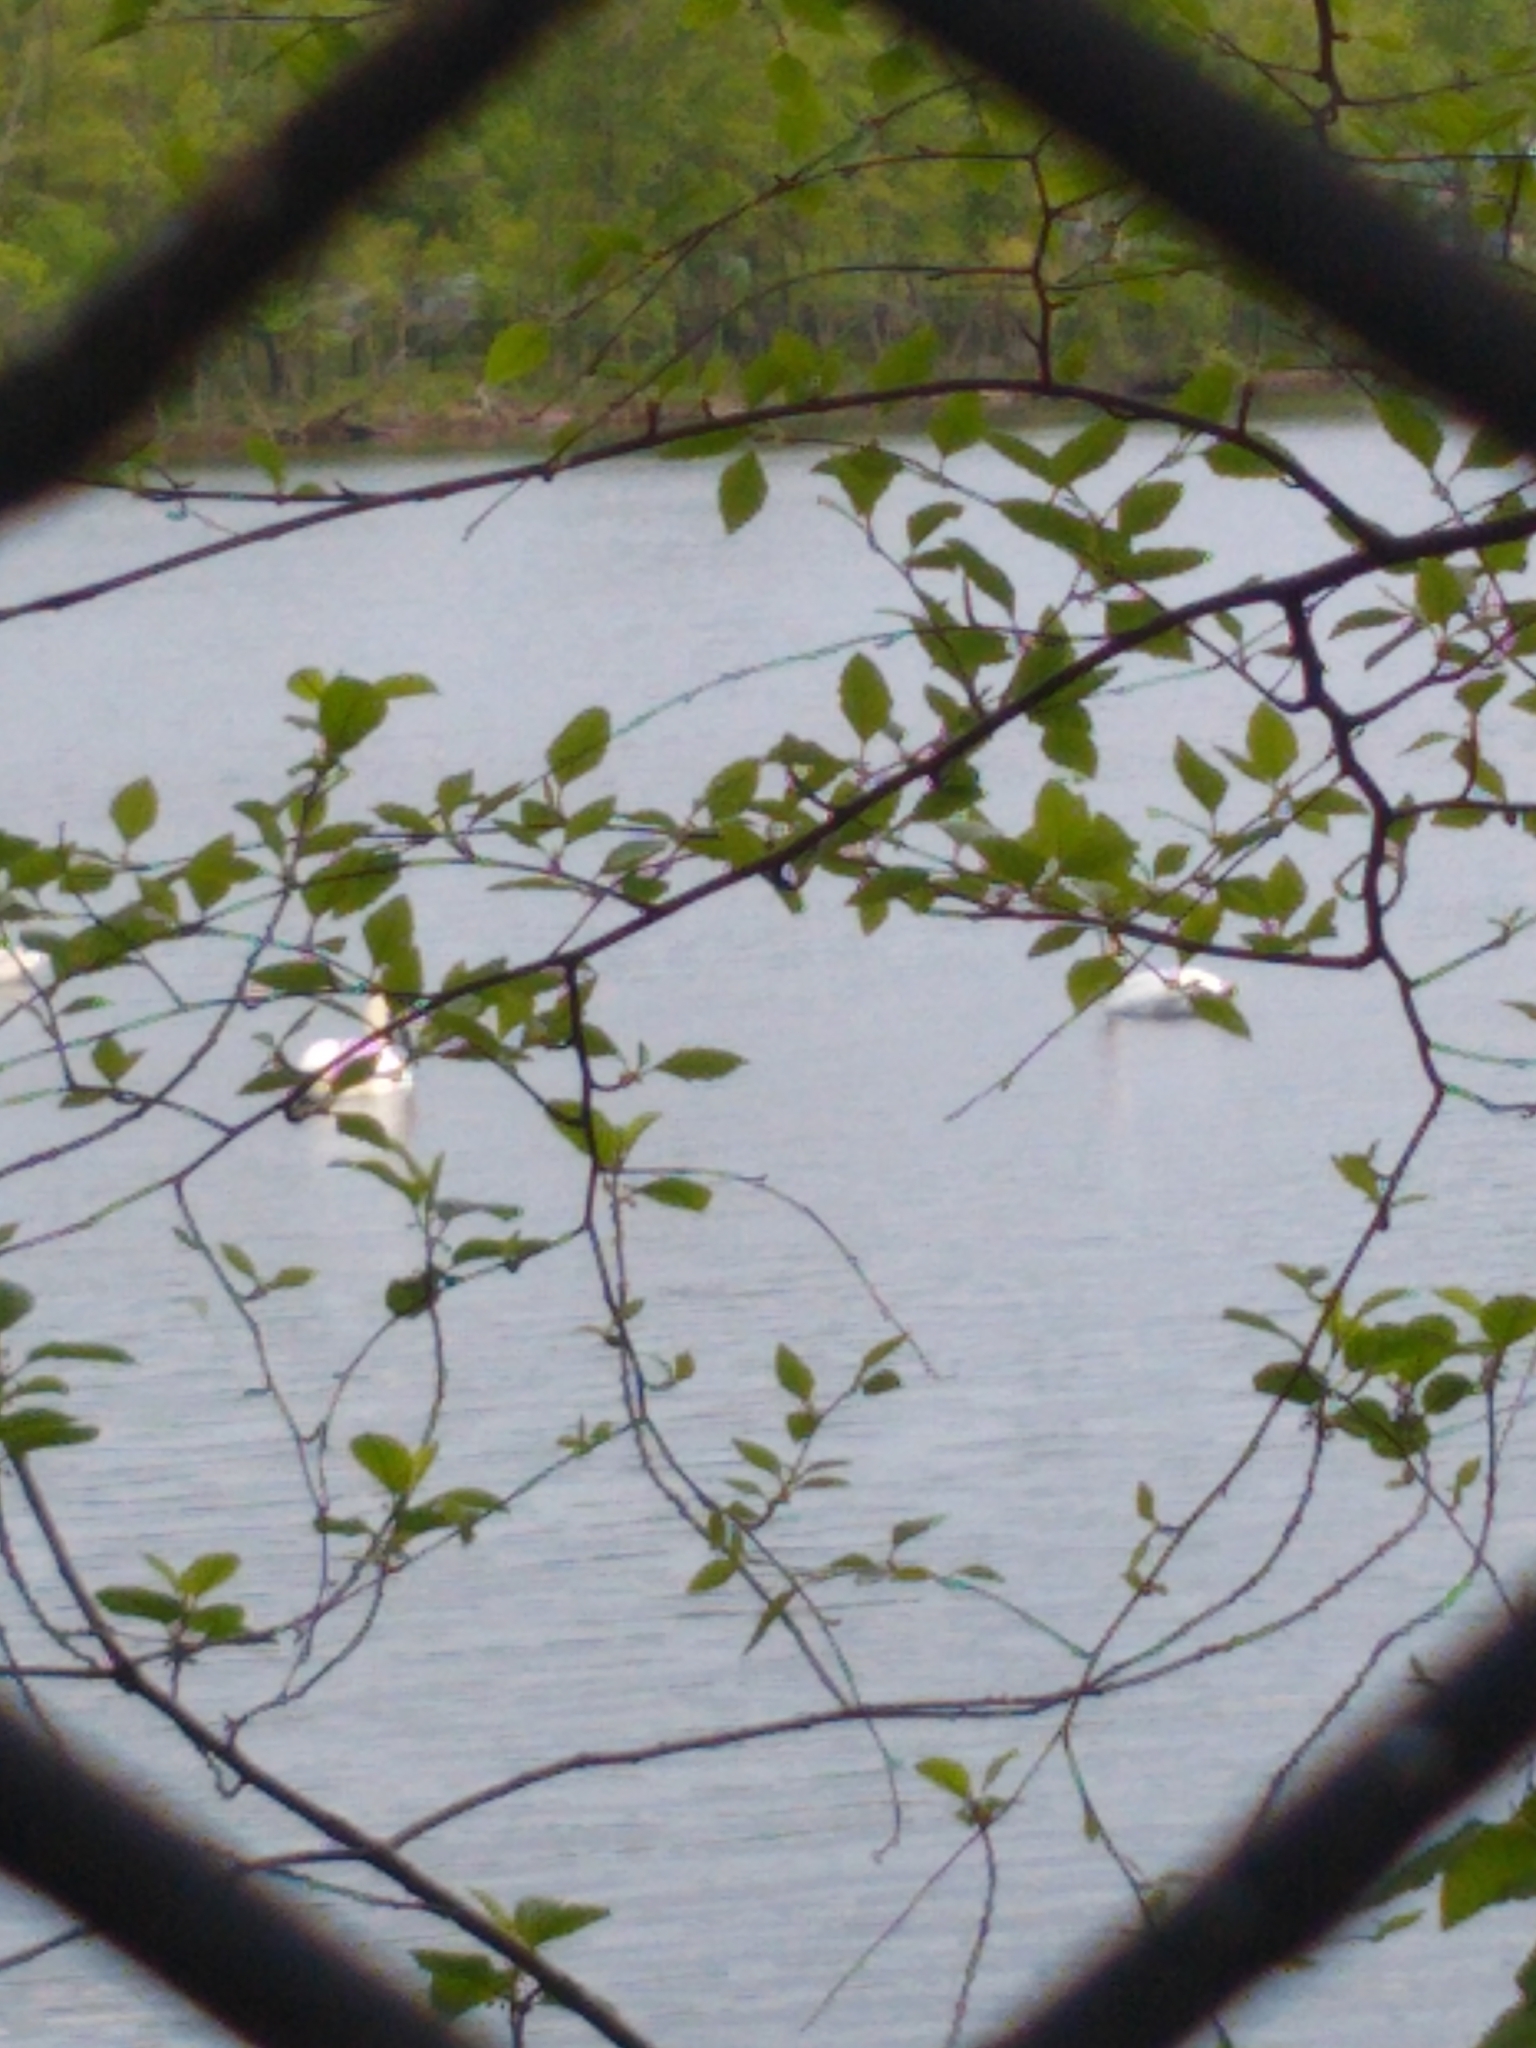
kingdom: Animalia
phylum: Chordata
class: Aves
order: Anseriformes
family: Anatidae
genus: Cygnus
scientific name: Cygnus olor
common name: Mute swan
